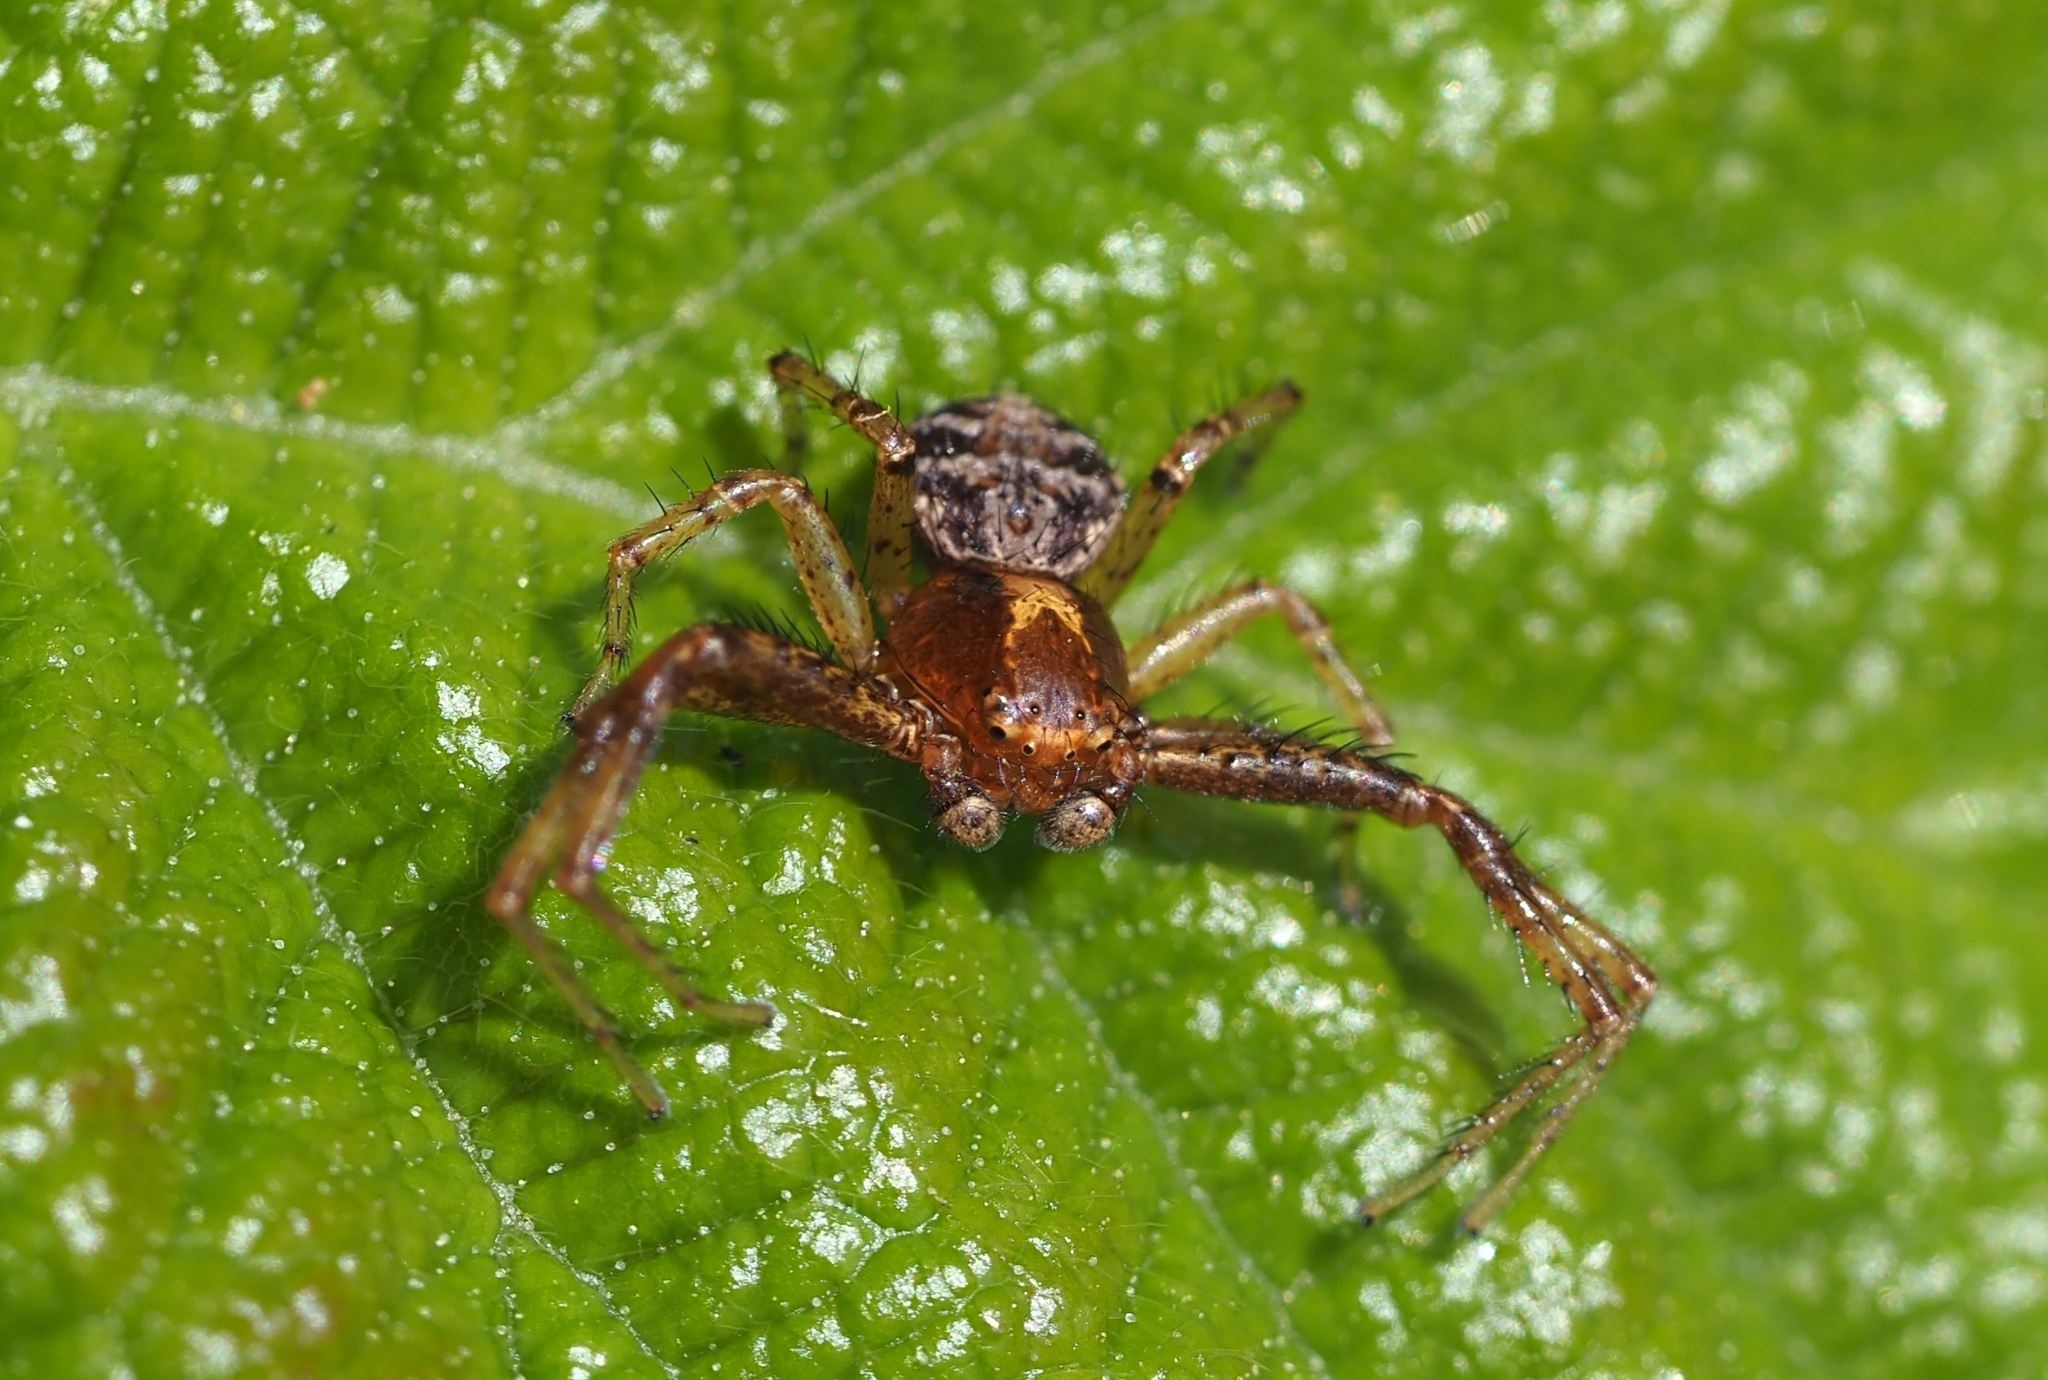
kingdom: Animalia
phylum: Arthropoda
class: Arachnida
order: Araneae
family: Thomisidae
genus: Xysticus
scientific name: Xysticus lanio
